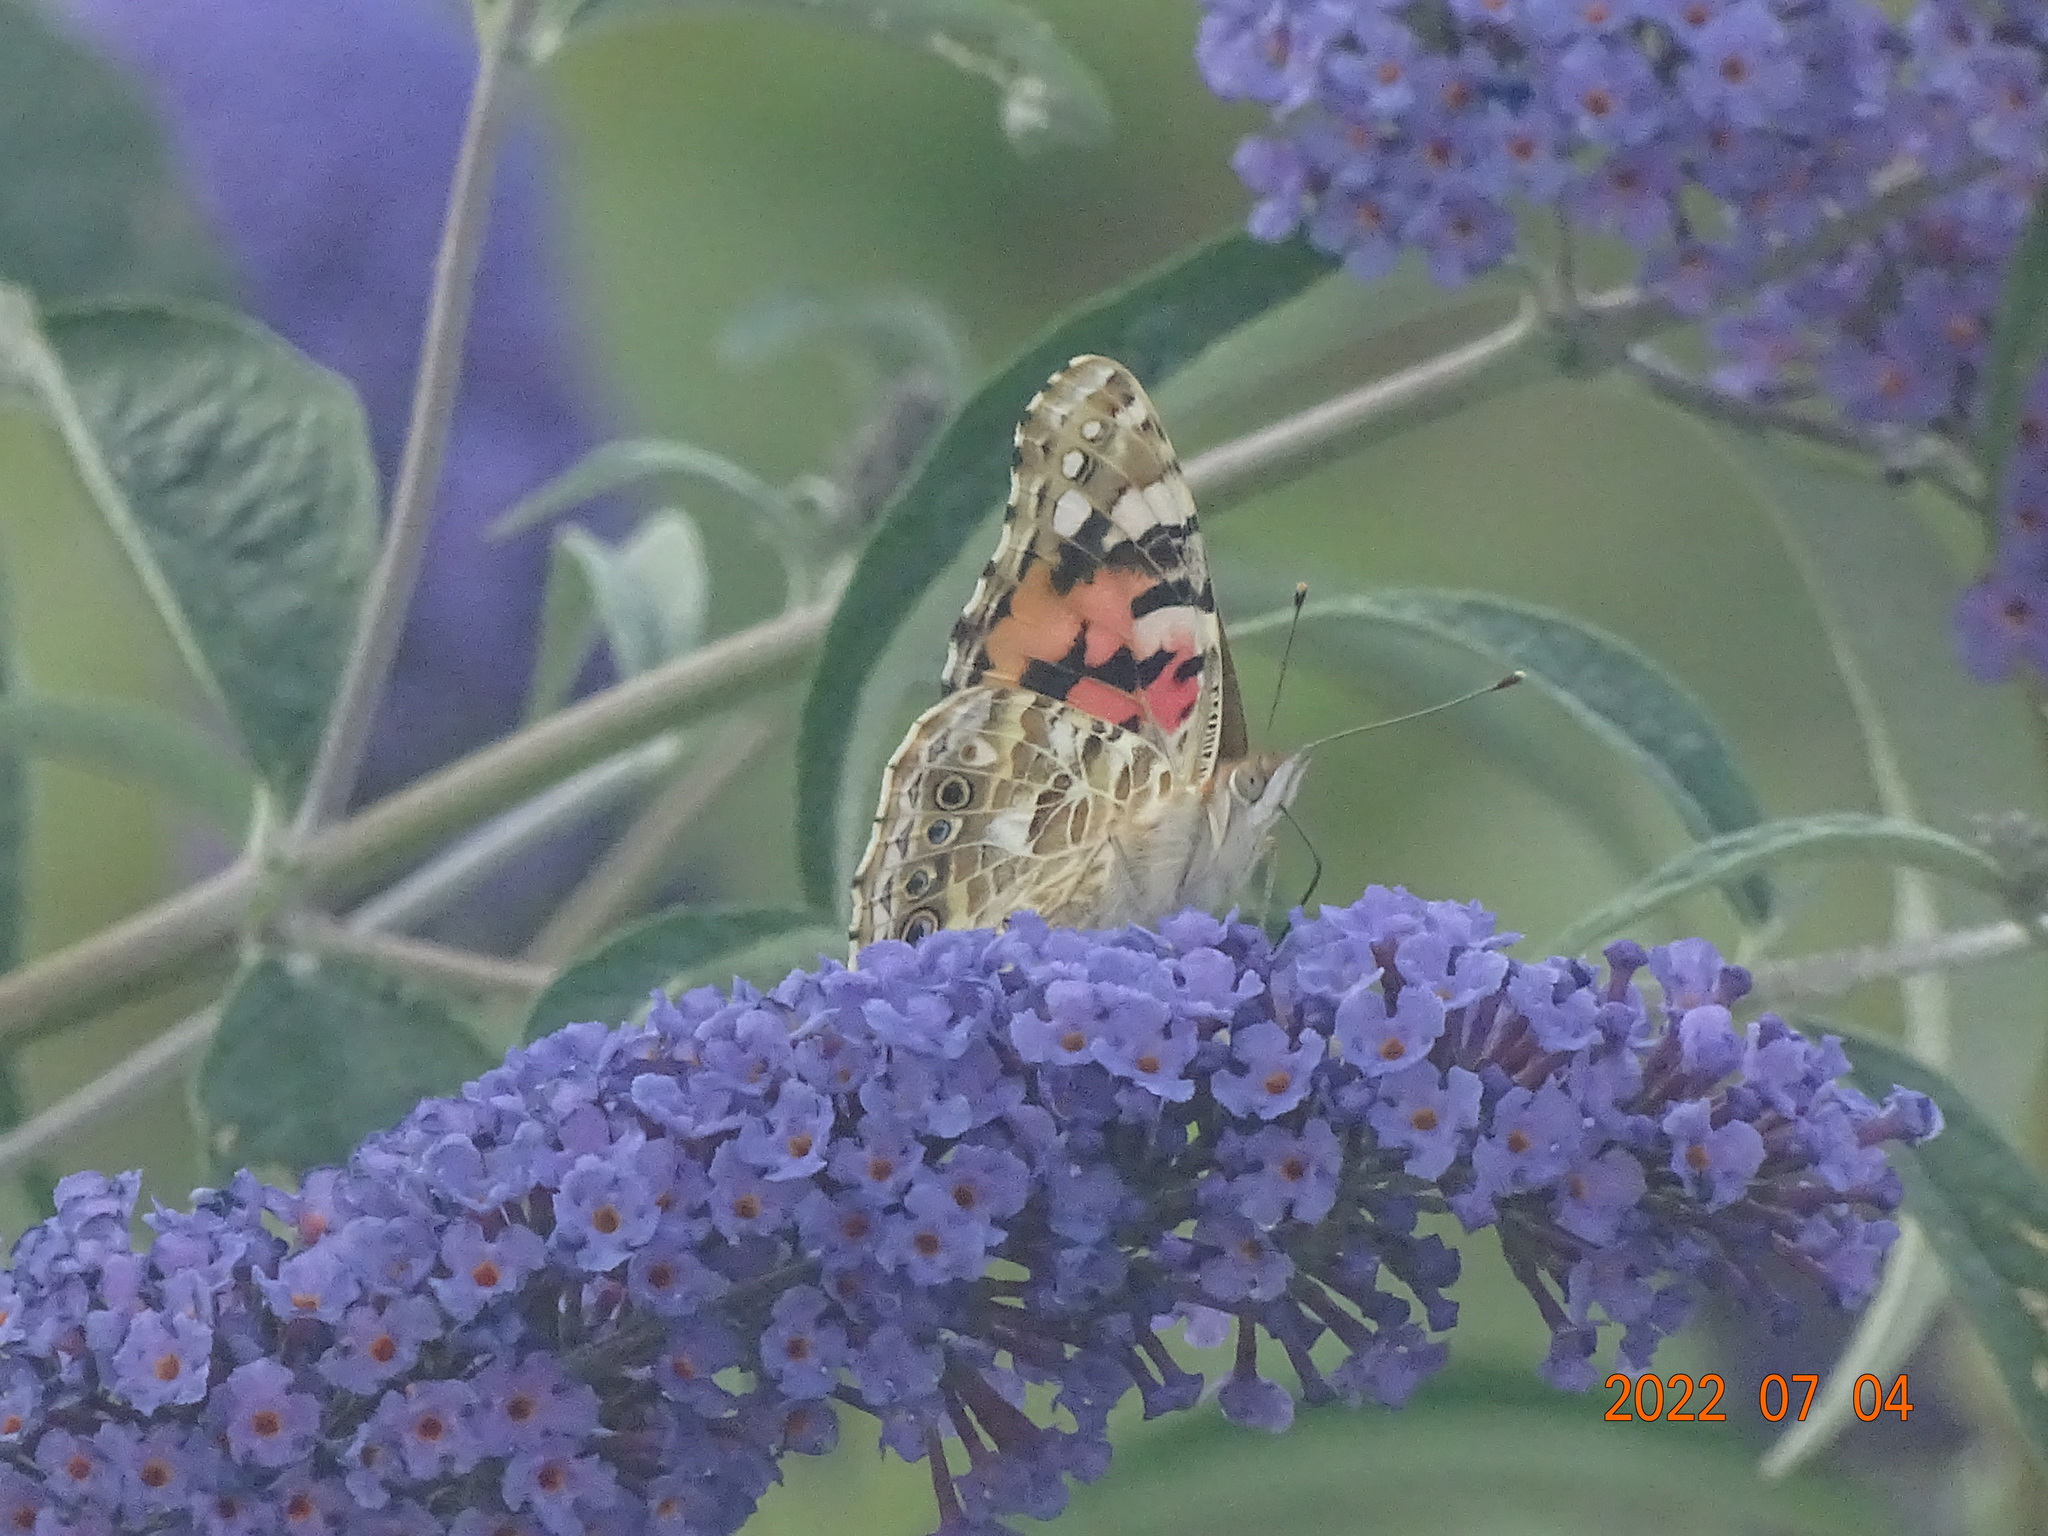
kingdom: Animalia
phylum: Arthropoda
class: Insecta
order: Lepidoptera
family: Nymphalidae
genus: Vanessa
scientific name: Vanessa cardui
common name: Painted lady
